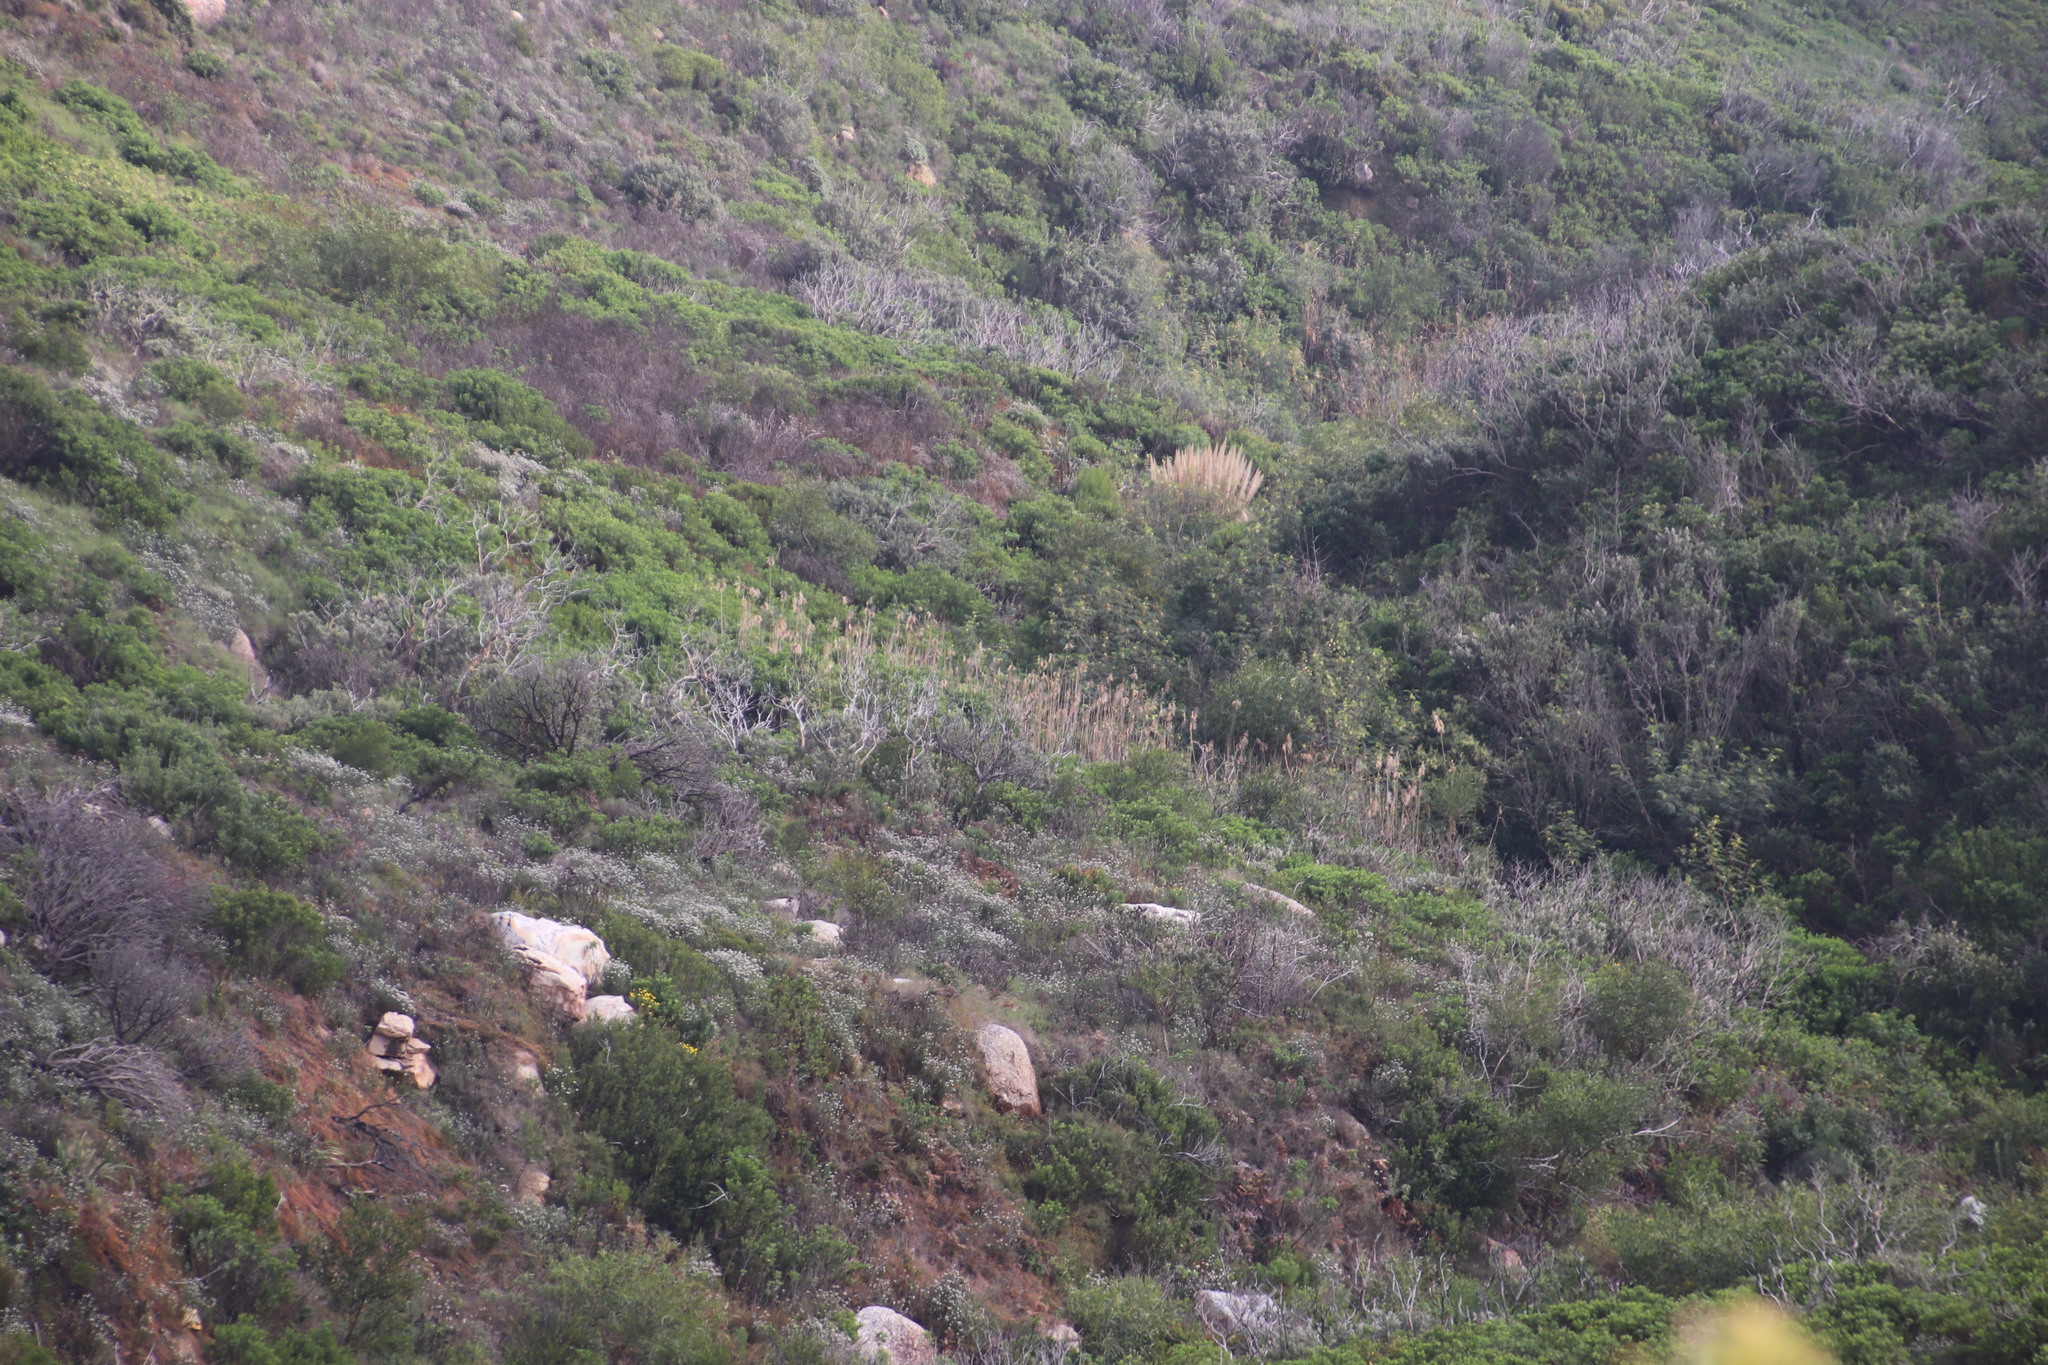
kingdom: Plantae
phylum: Tracheophyta
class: Liliopsida
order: Poales
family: Poaceae
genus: Cortaderia
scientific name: Cortaderia selloana
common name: Uruguayan pampas grass
